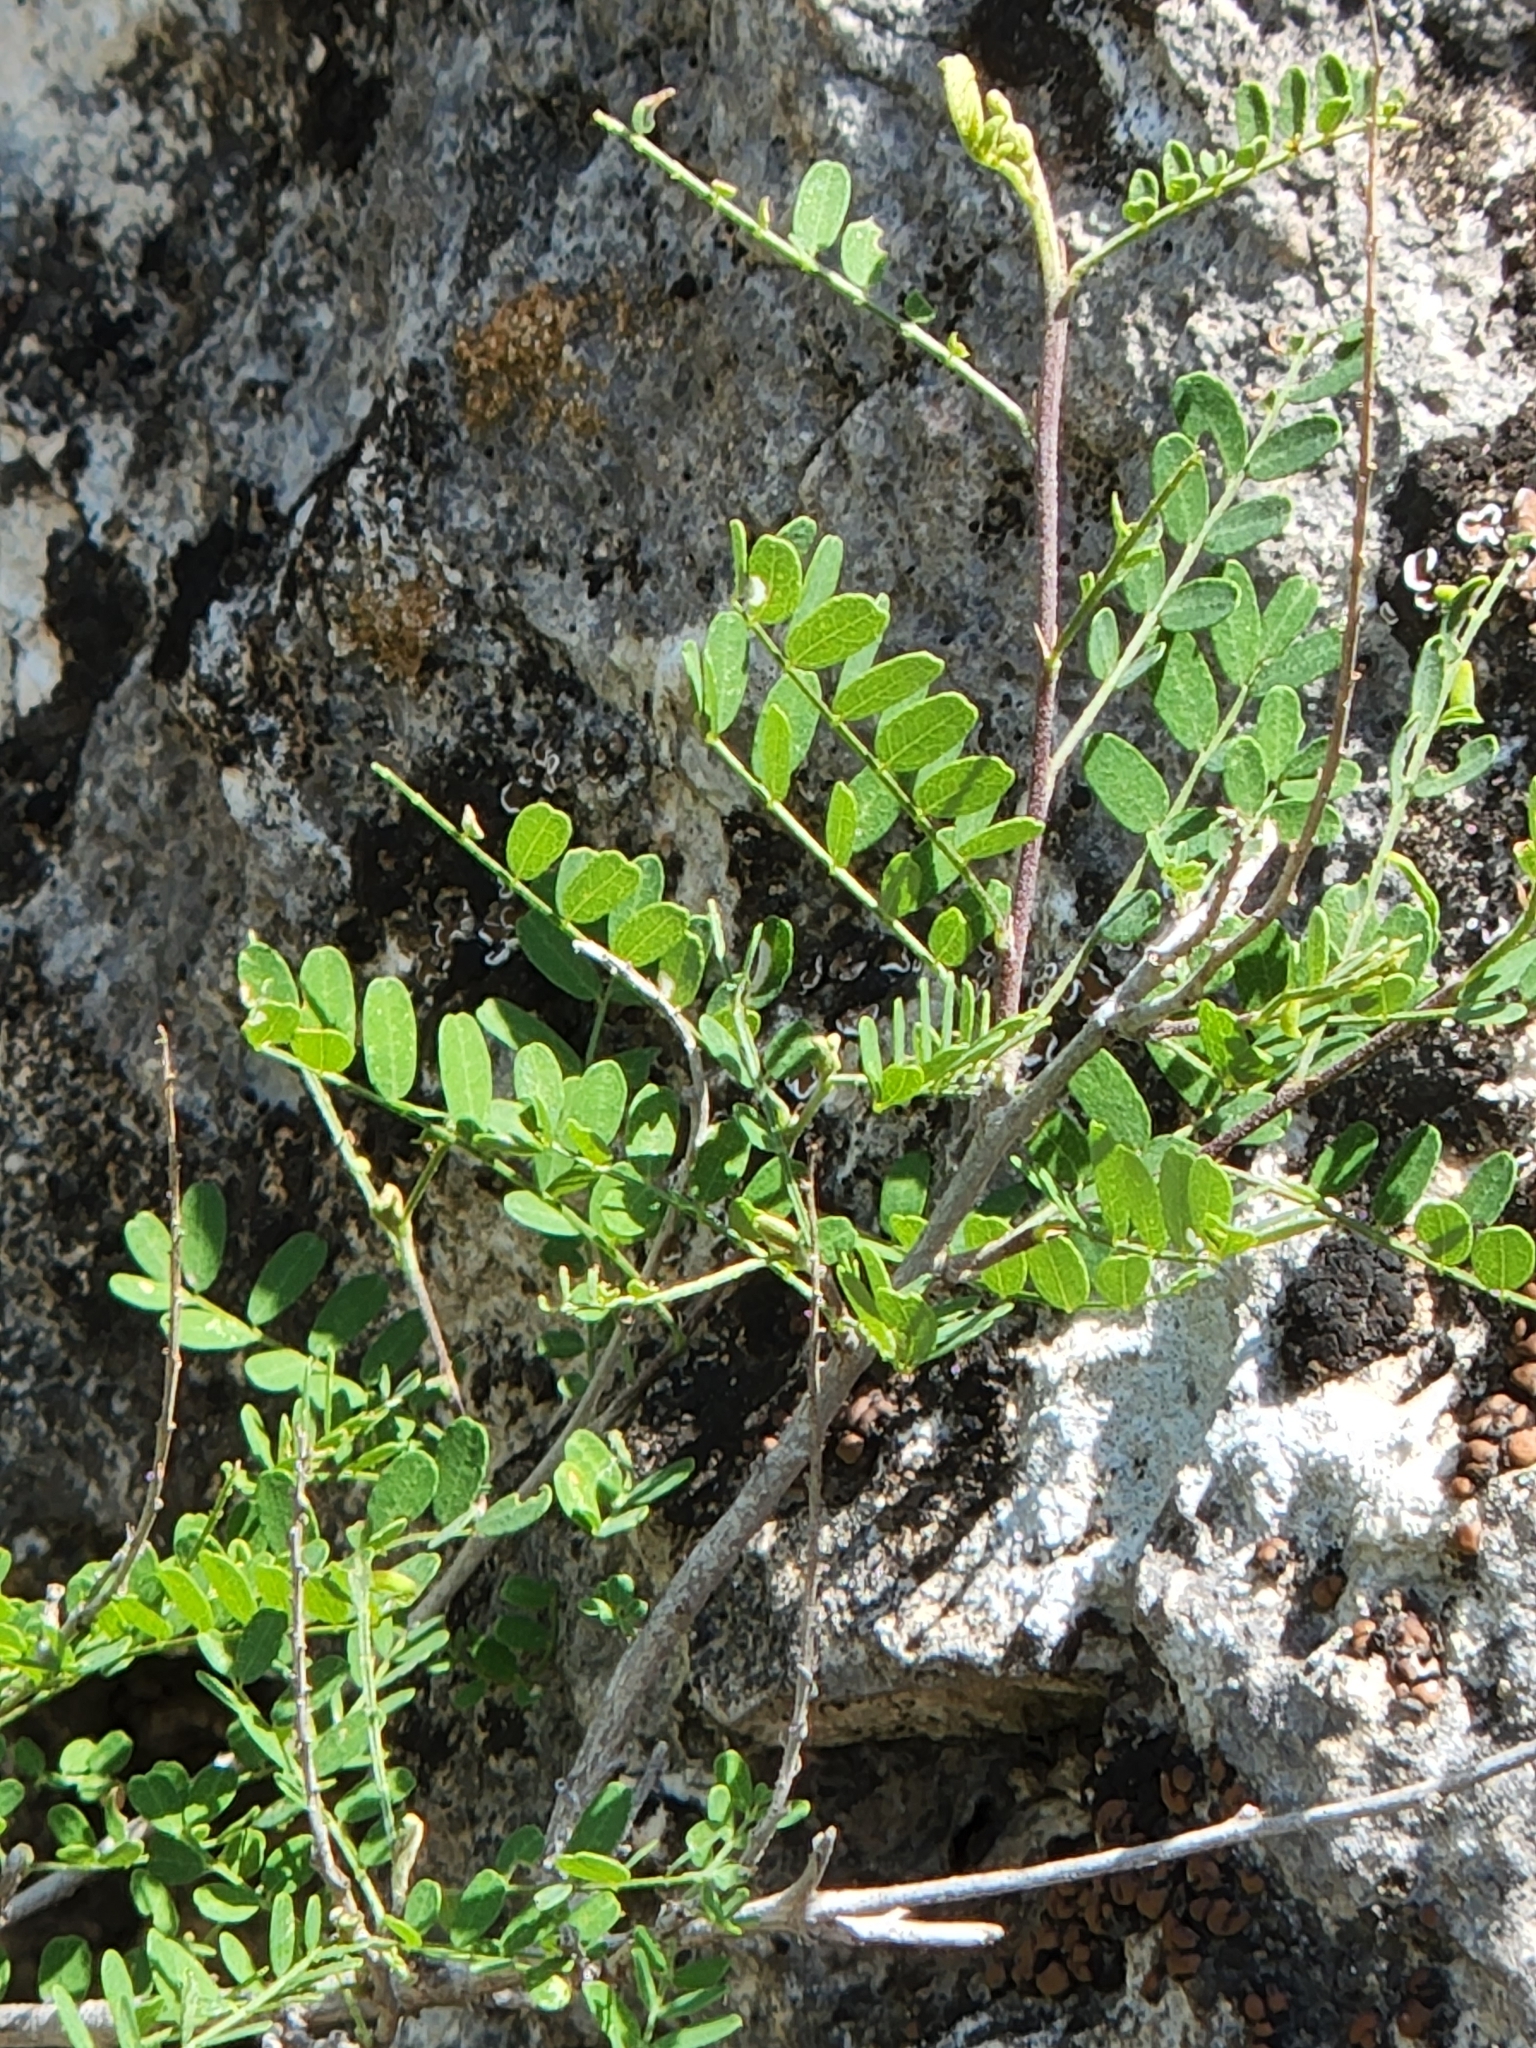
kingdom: Plantae
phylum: Tracheophyta
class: Magnoliopsida
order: Fabales
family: Fabaceae
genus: Eysenhardtia
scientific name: Eysenhardtia texana
